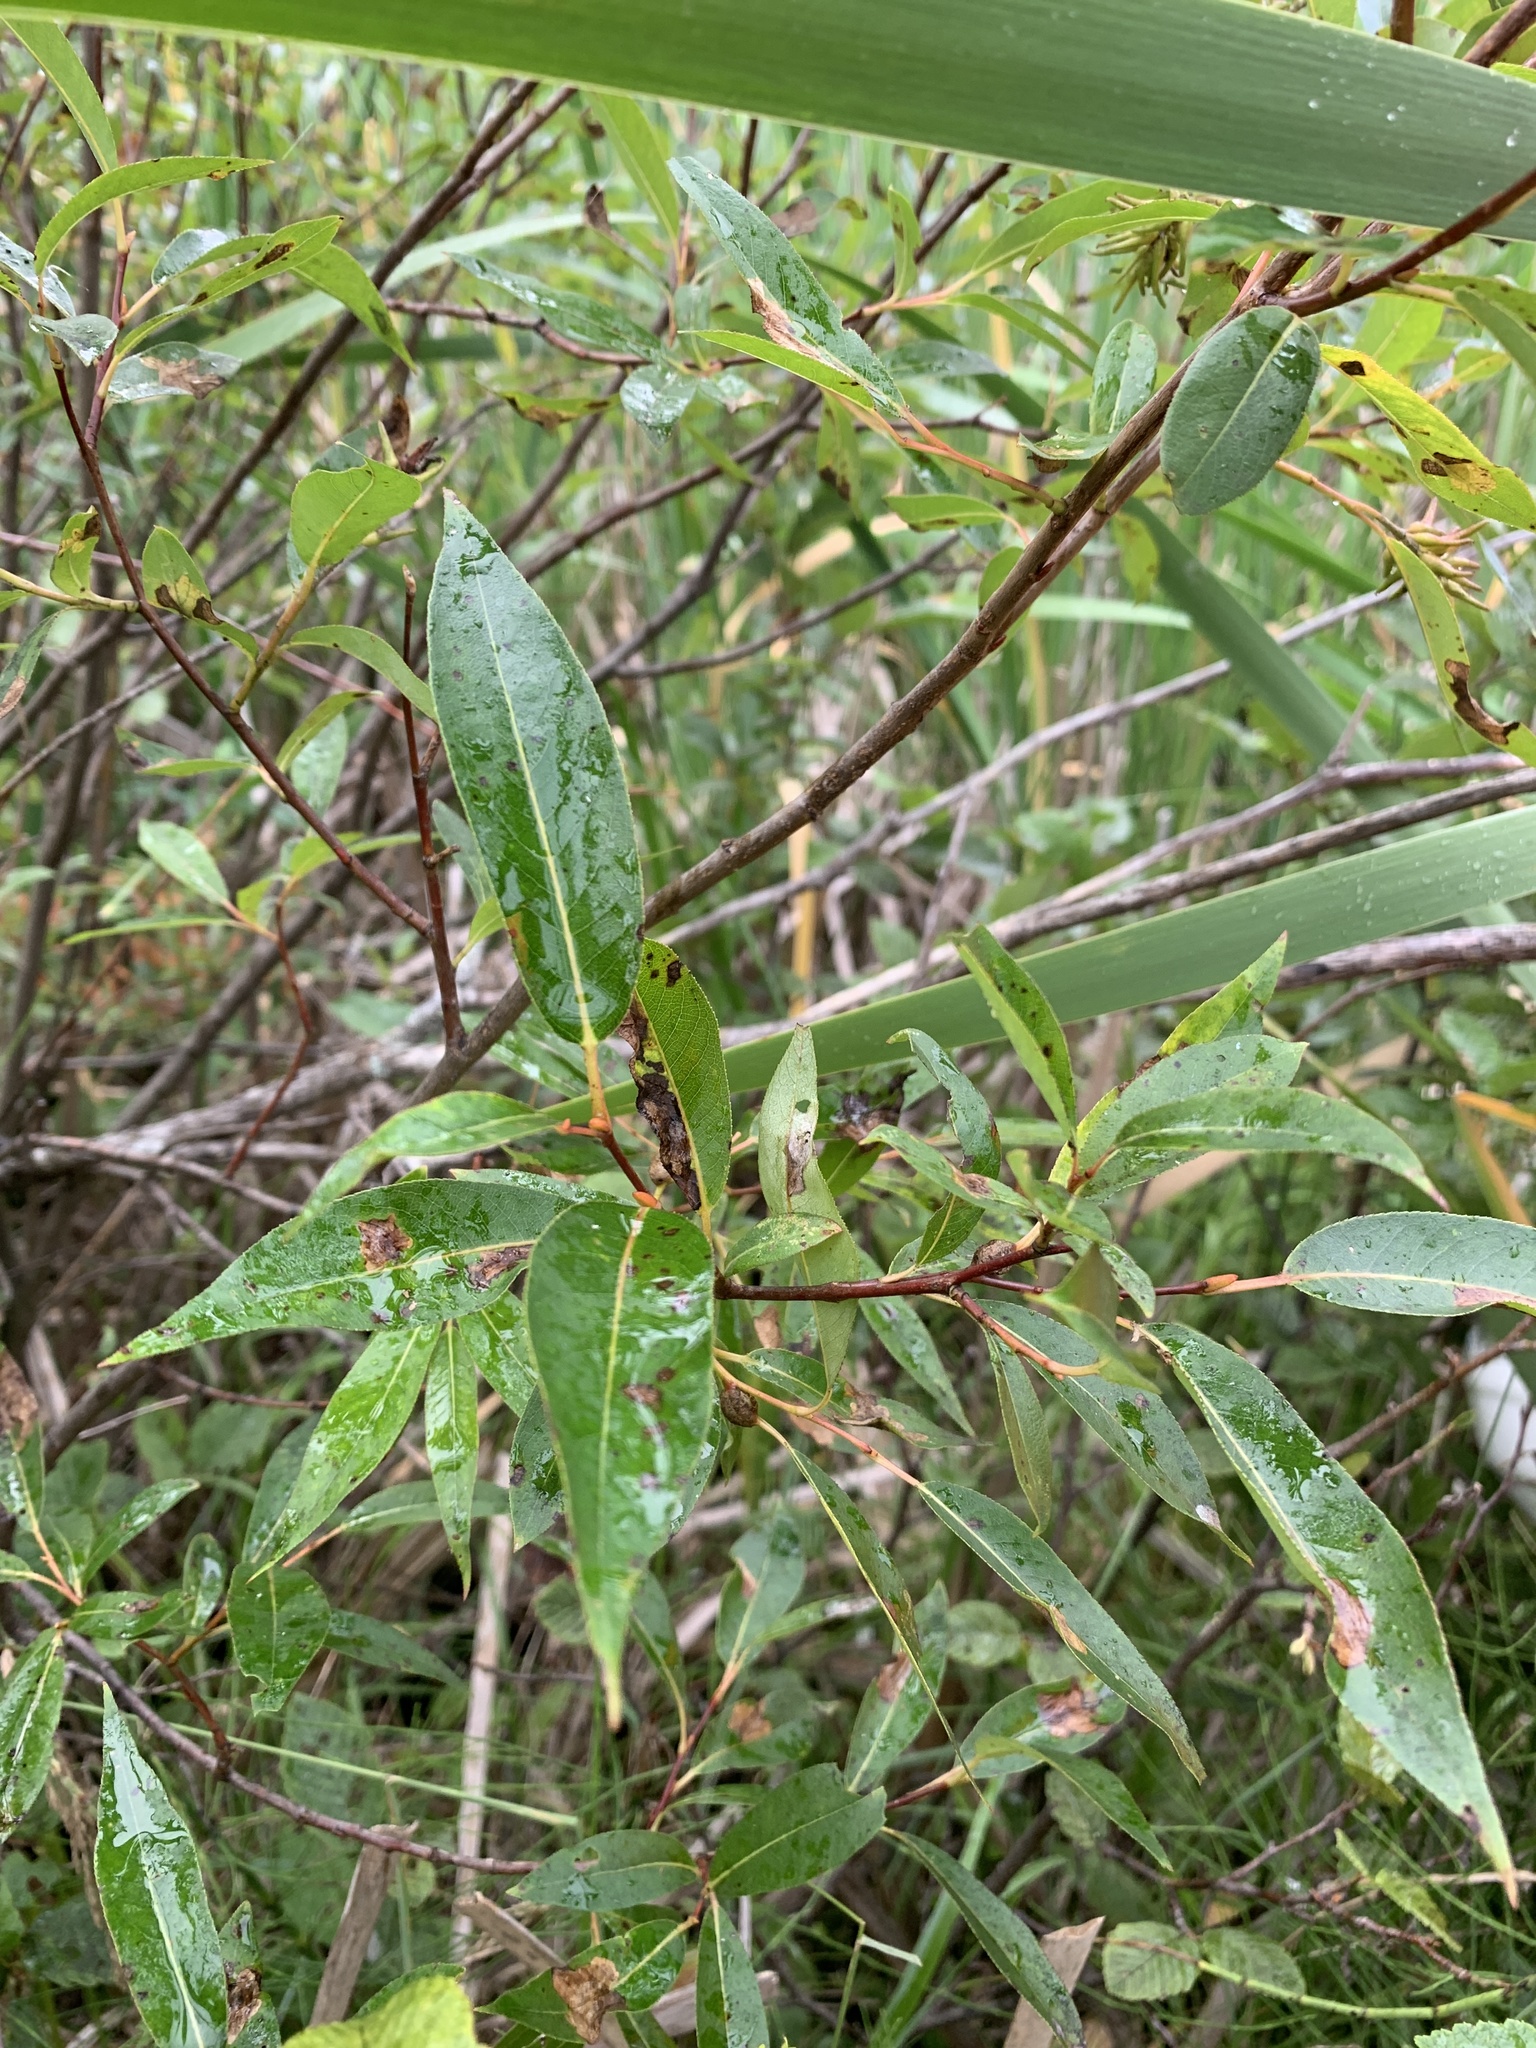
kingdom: Plantae
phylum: Tracheophyta
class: Magnoliopsida
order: Malpighiales
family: Salicaceae
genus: Salix
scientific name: Salix serissima
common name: Autumn willow
